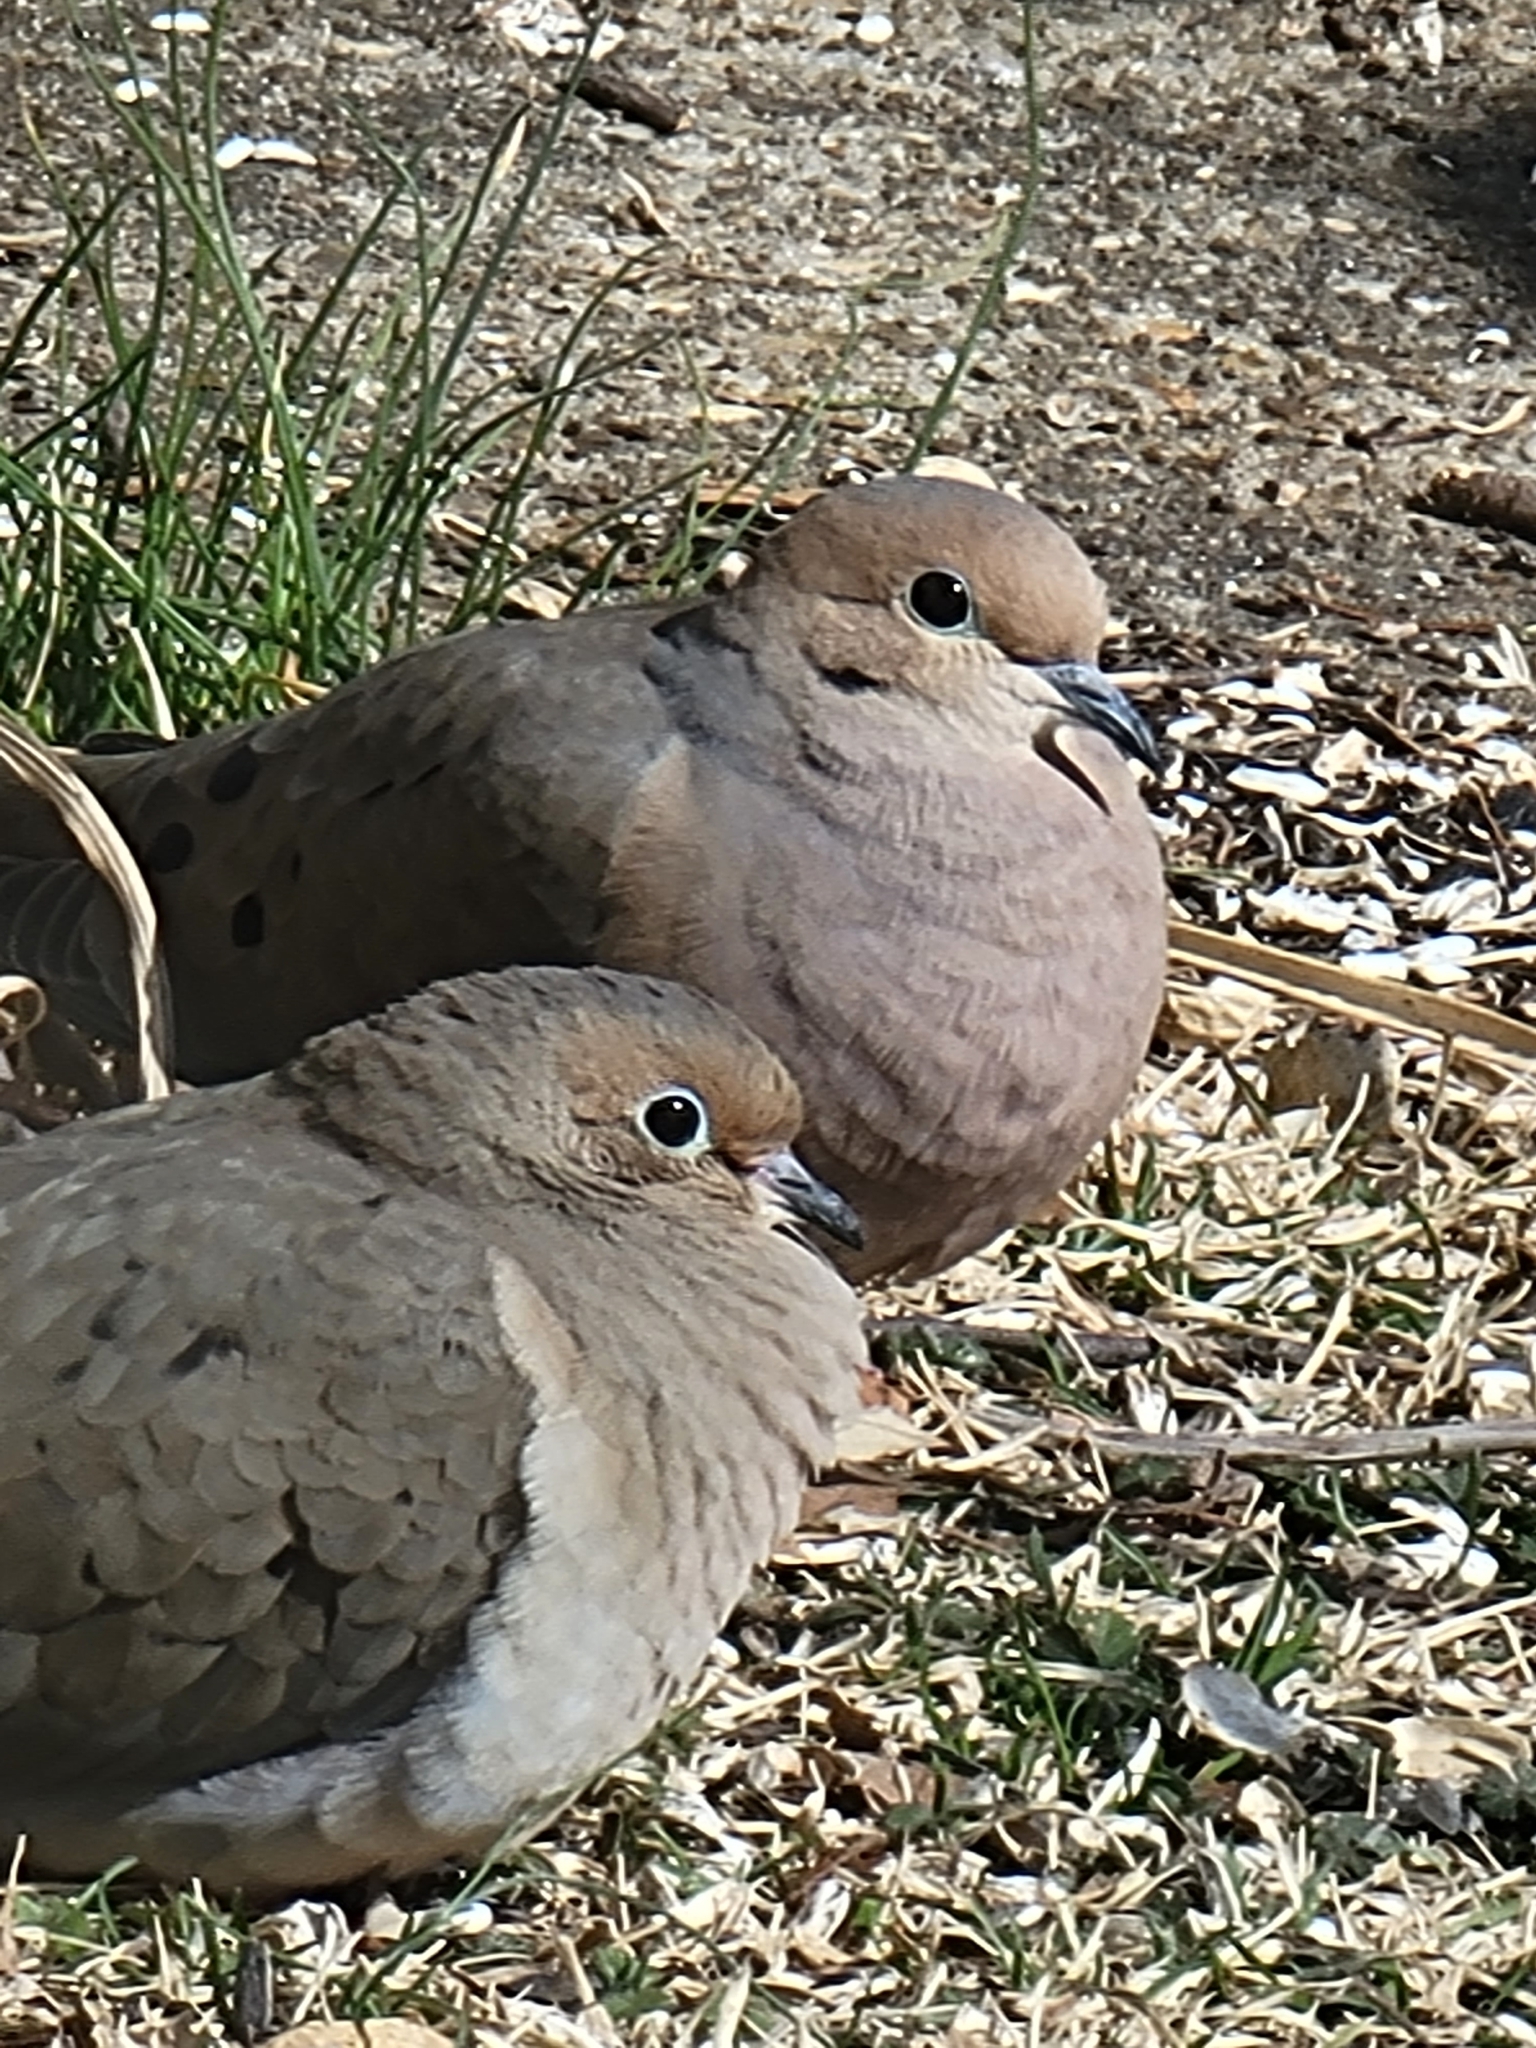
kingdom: Animalia
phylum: Chordata
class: Aves
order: Columbiformes
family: Columbidae
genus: Zenaida
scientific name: Zenaida macroura
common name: Mourning dove
